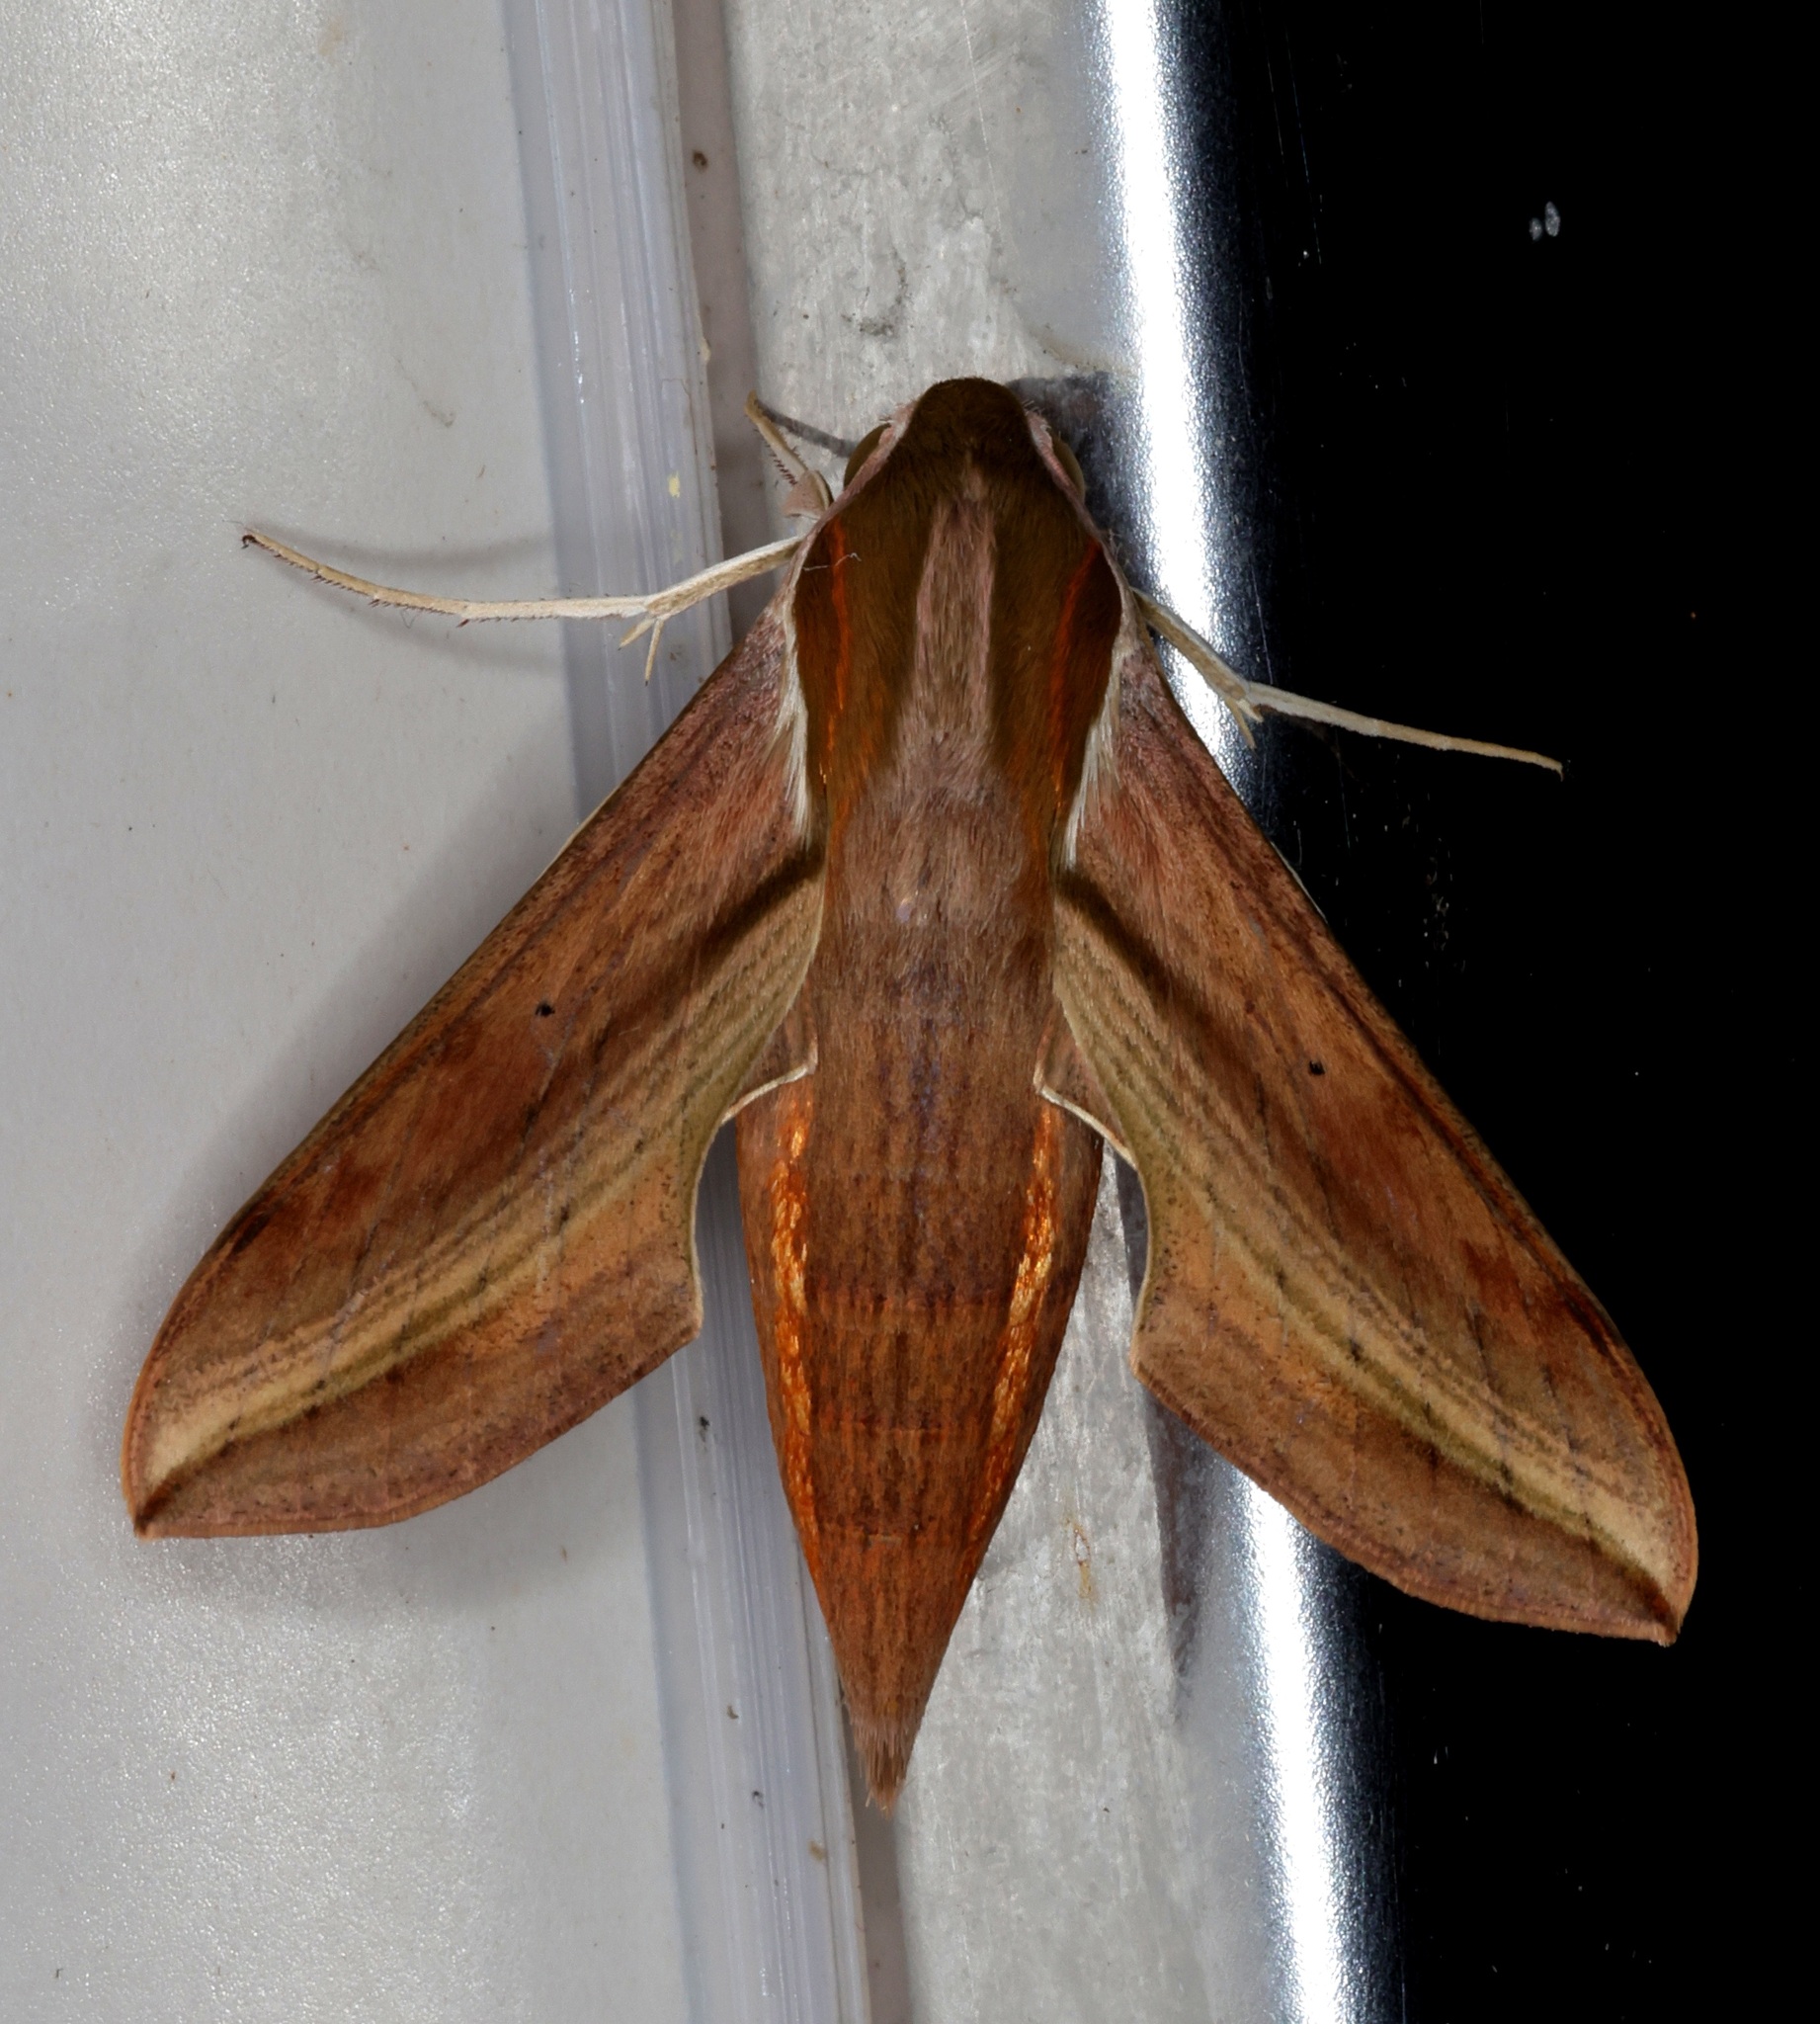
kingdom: Animalia
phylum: Arthropoda
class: Insecta
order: Lepidoptera
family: Sphingidae
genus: Hippotion
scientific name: Hippotion rosetta
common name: Vine hawk moth
